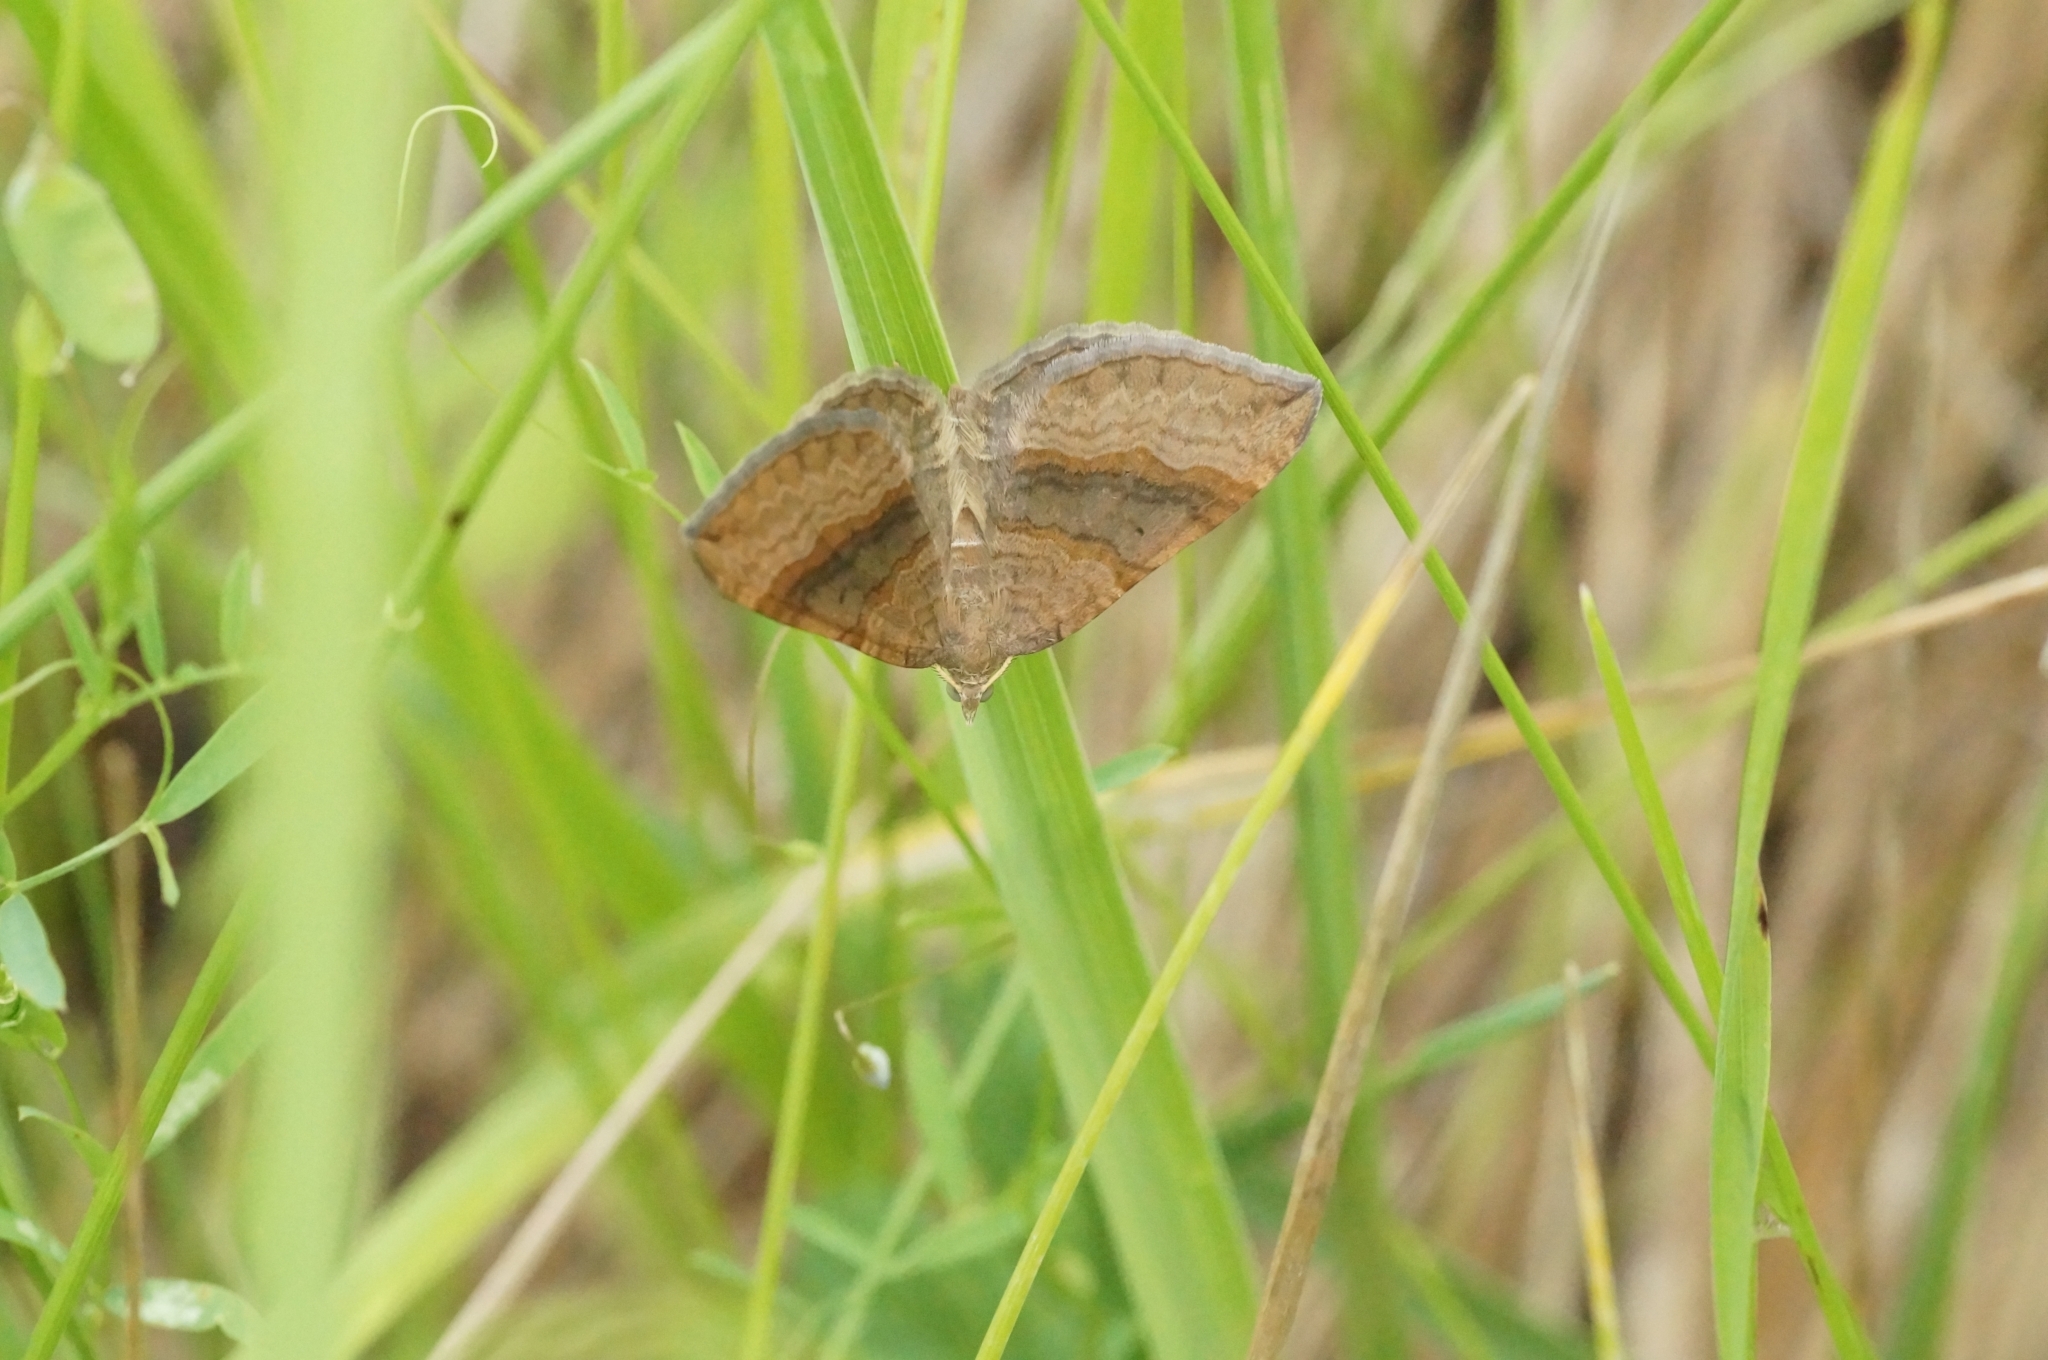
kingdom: Animalia
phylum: Arthropoda
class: Insecta
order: Lepidoptera
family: Geometridae
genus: Scotopteryx
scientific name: Scotopteryx chenopodiata
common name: Shaded broad-bar
